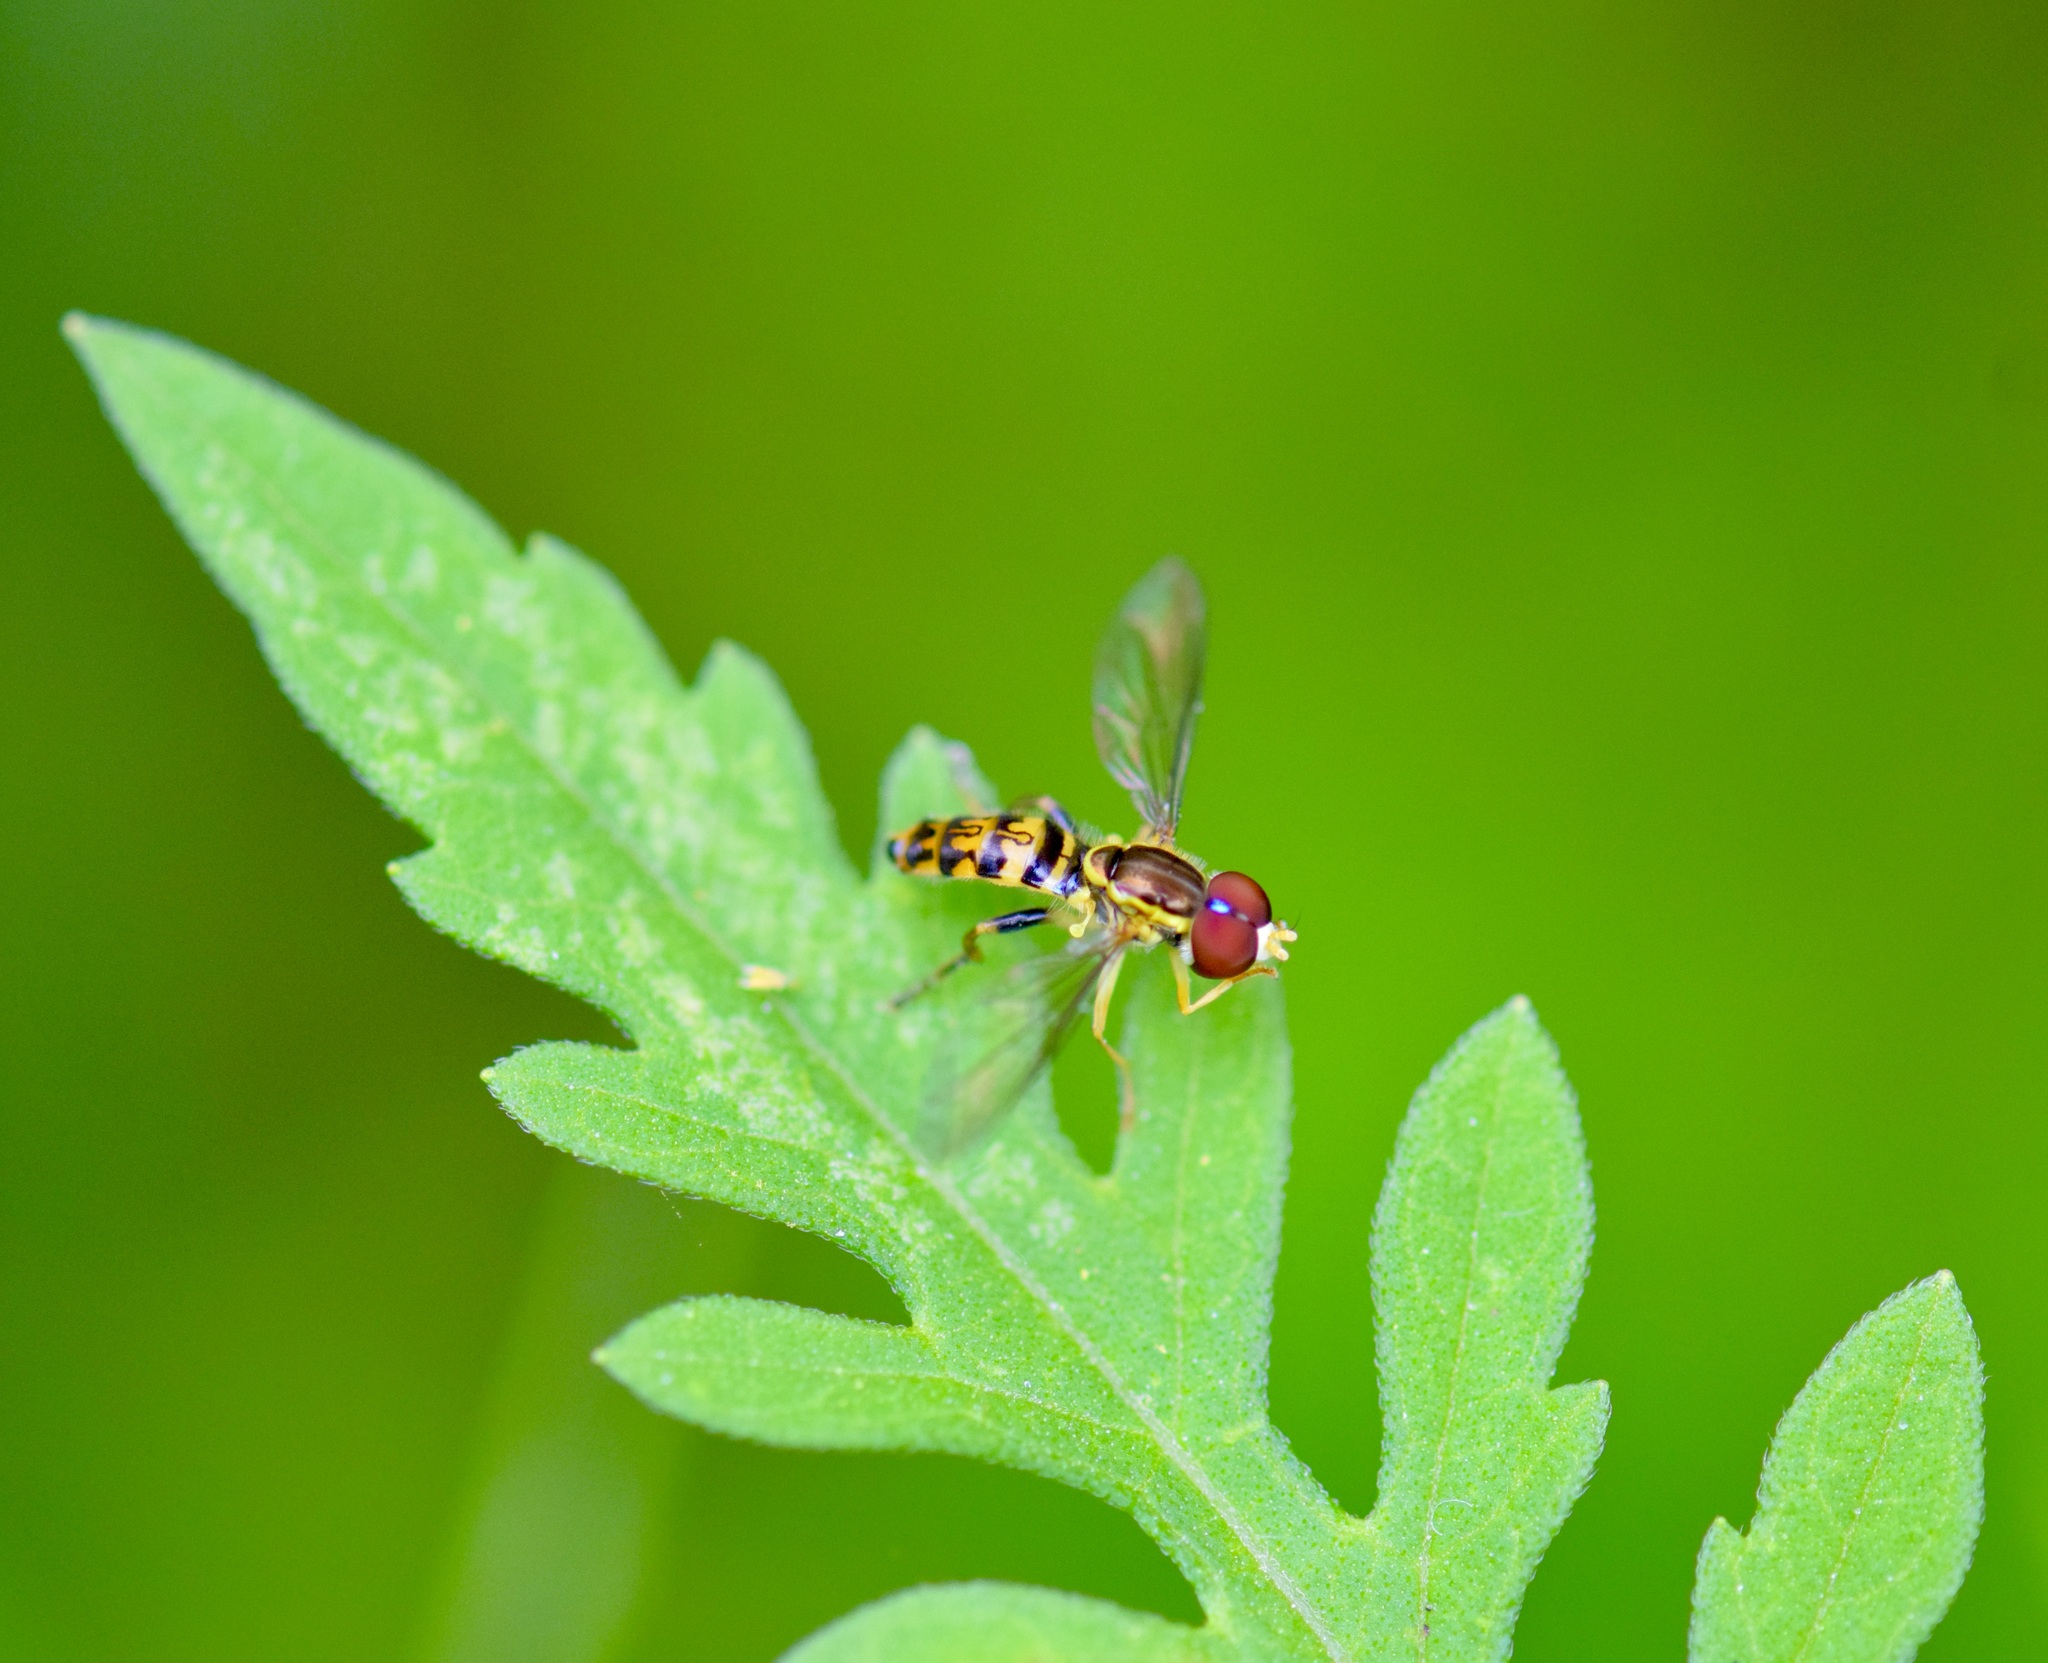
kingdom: Animalia
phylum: Arthropoda
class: Insecta
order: Diptera
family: Syrphidae
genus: Toxomerus
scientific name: Toxomerus geminatus
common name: Eastern calligrapher
